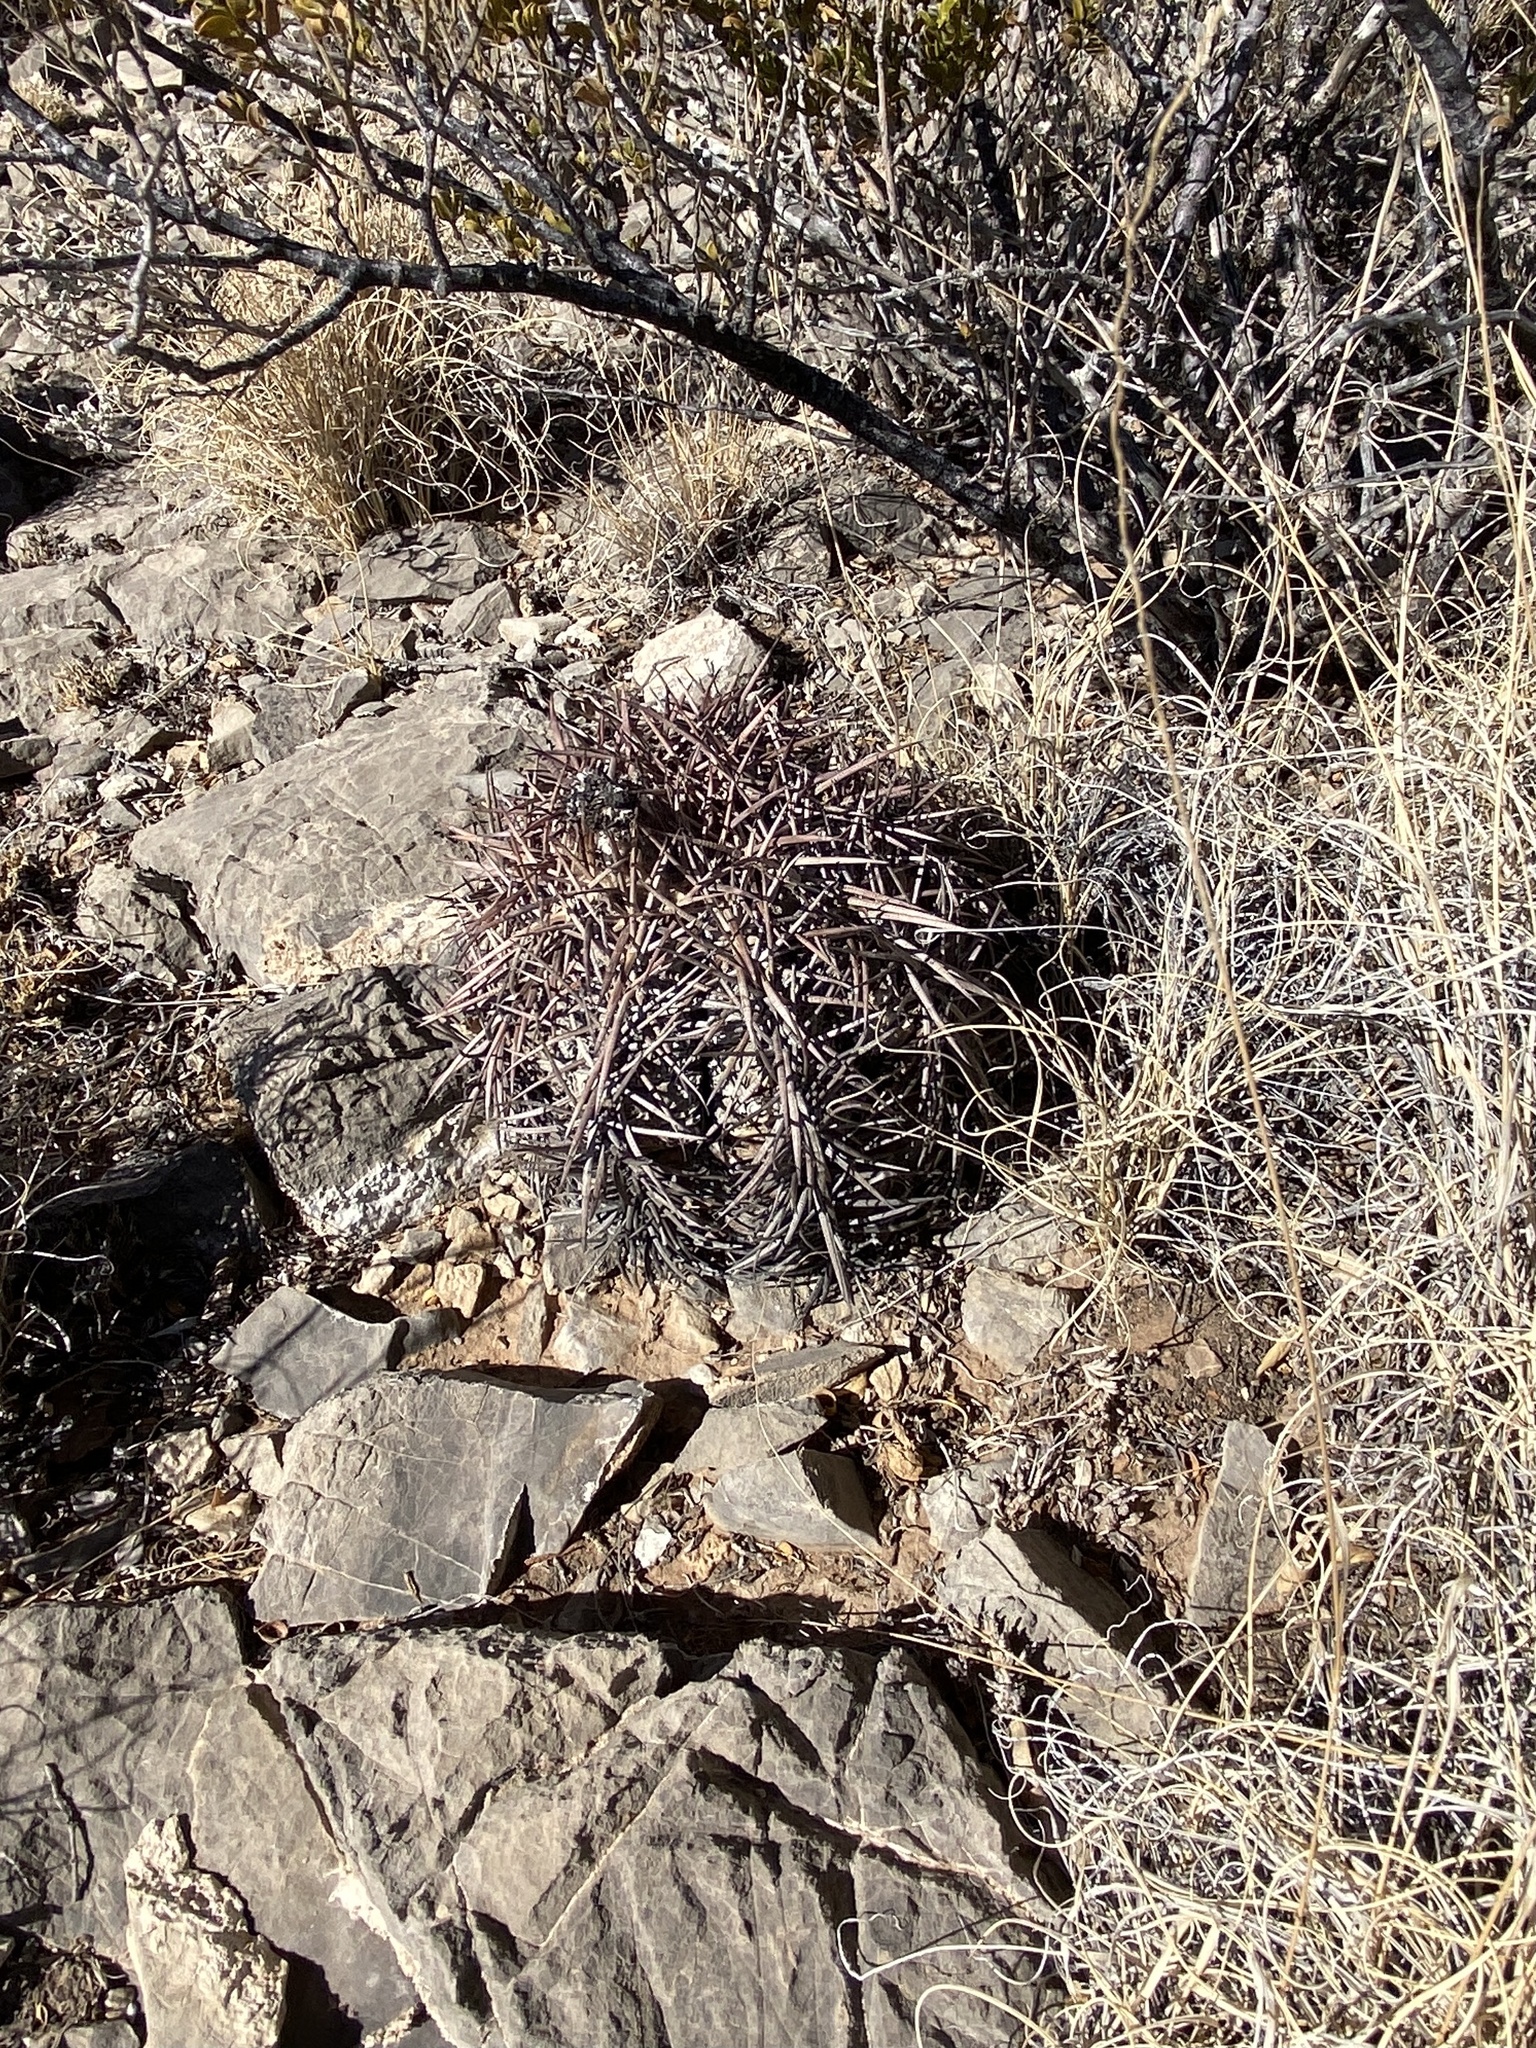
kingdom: Plantae
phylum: Tracheophyta
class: Magnoliopsida
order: Caryophyllales
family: Cactaceae
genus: Echinocactus
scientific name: Echinocactus horizonthalonius
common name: Devilshead
